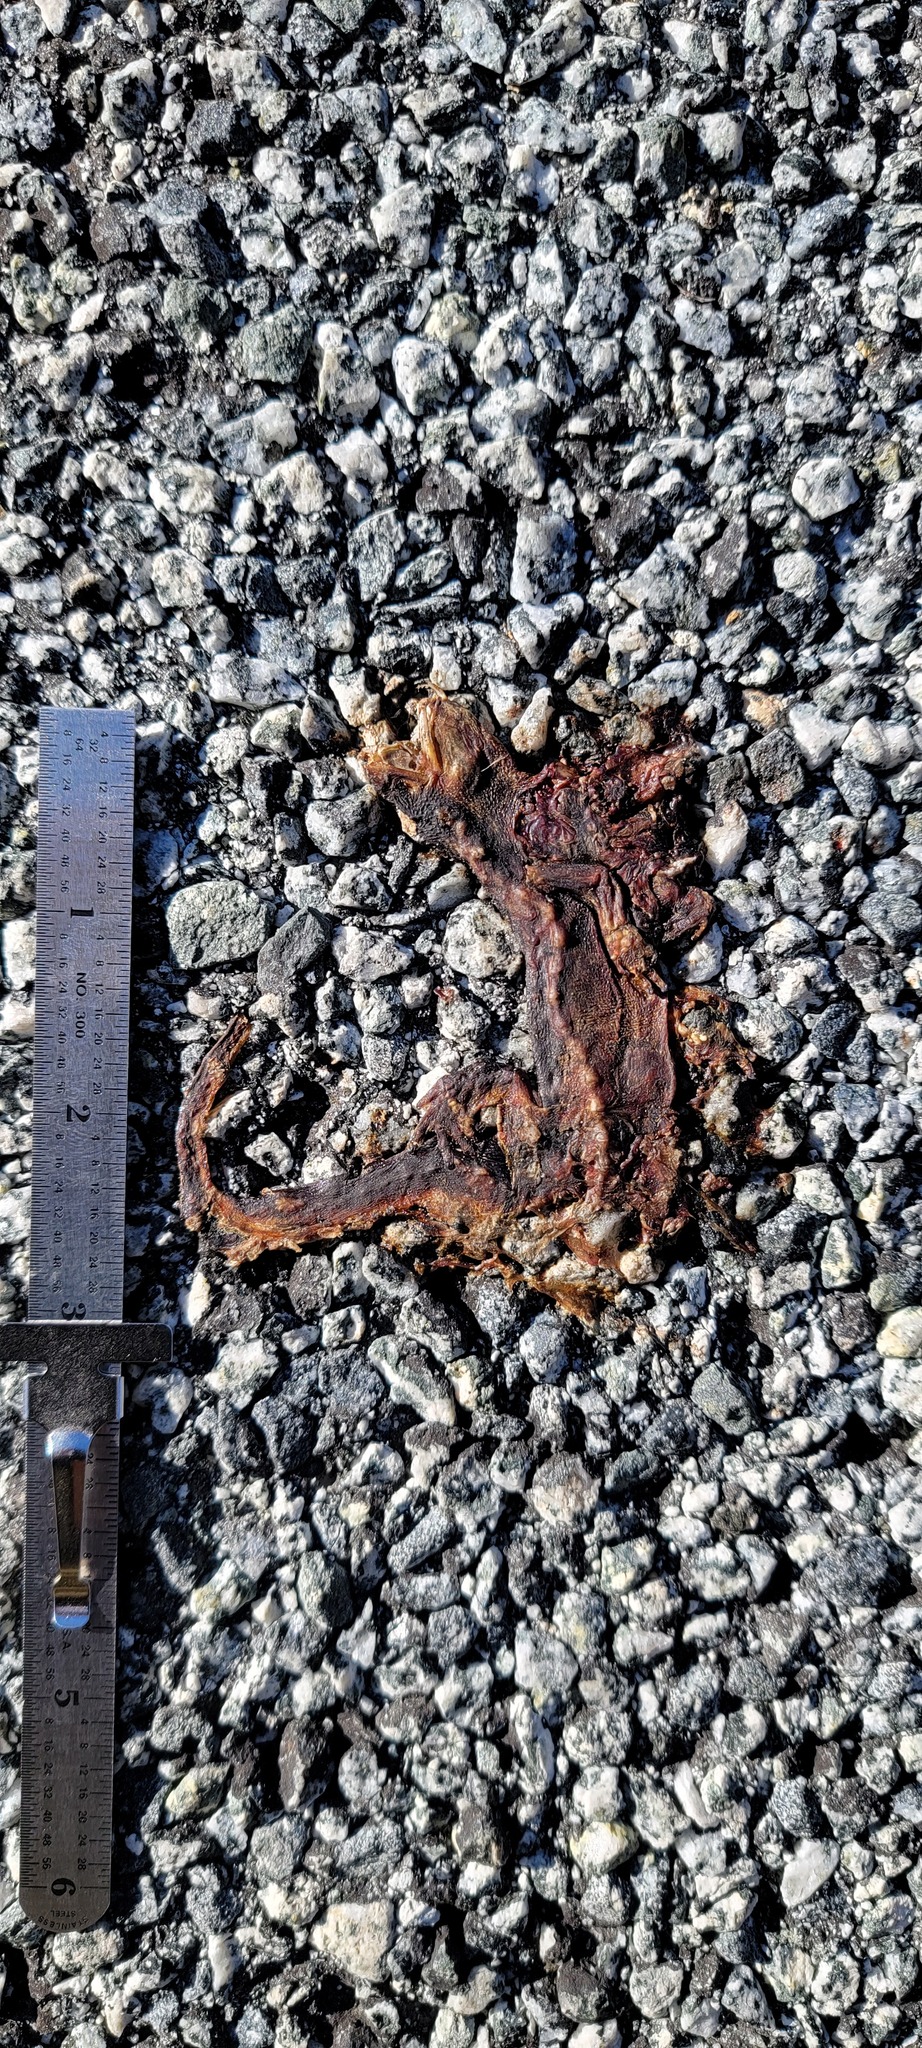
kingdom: Animalia
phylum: Chordata
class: Amphibia
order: Caudata
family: Salamandridae
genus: Taricha
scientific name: Taricha
